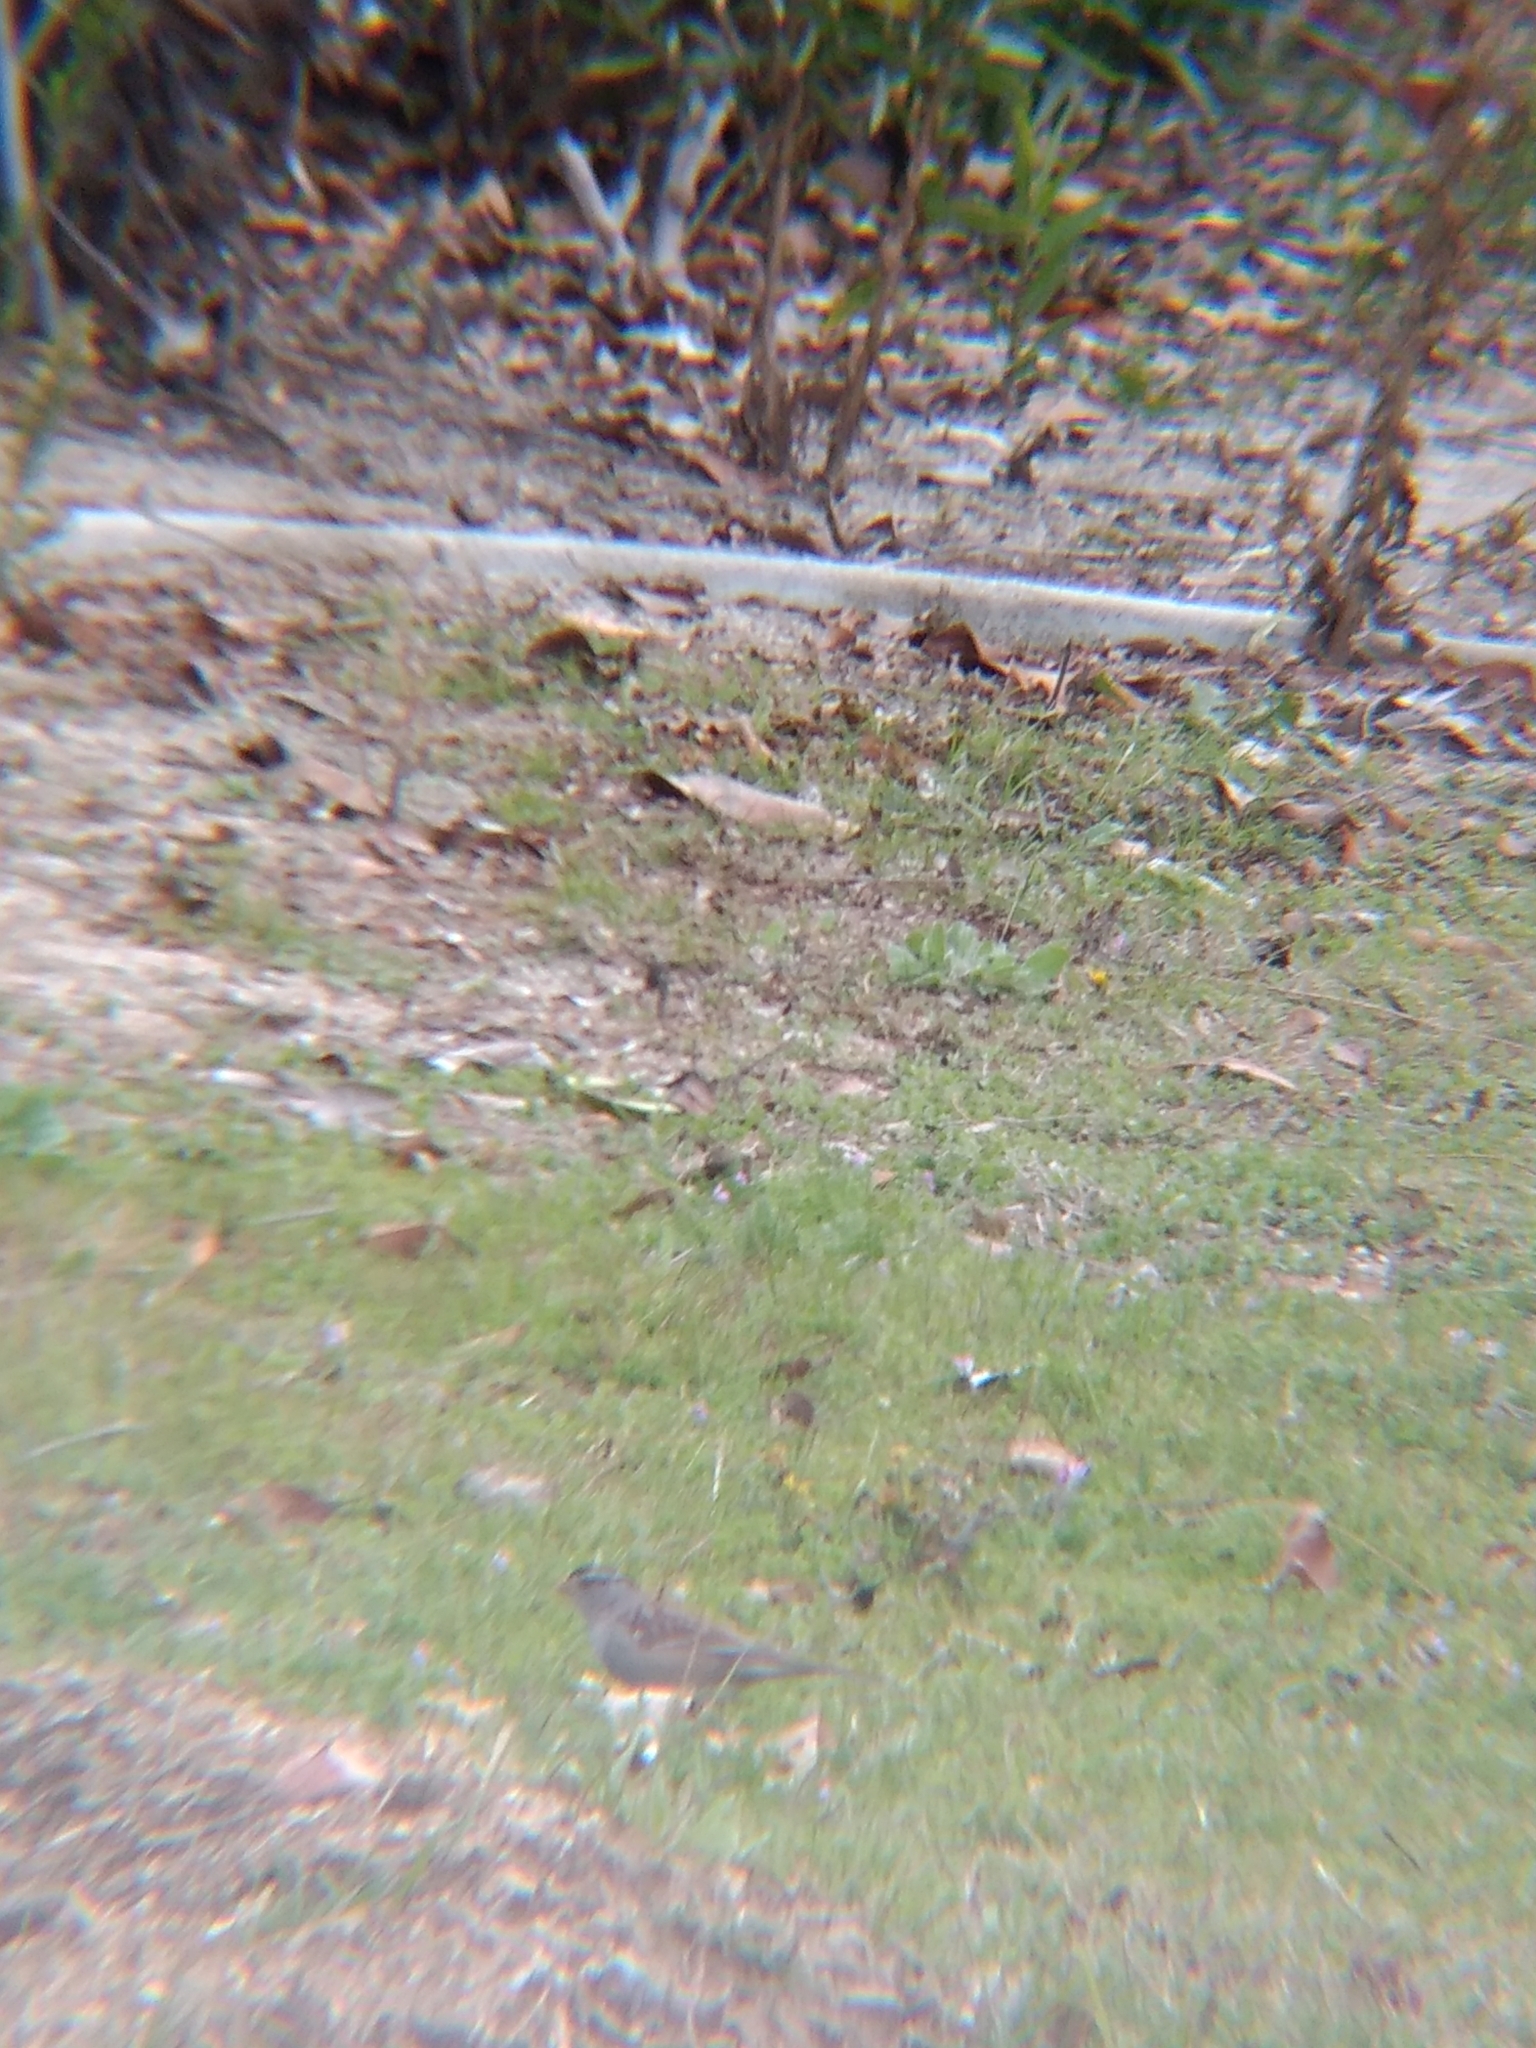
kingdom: Animalia
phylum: Chordata
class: Aves
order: Passeriformes
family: Passerellidae
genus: Zonotrichia
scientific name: Zonotrichia leucophrys
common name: White-crowned sparrow
